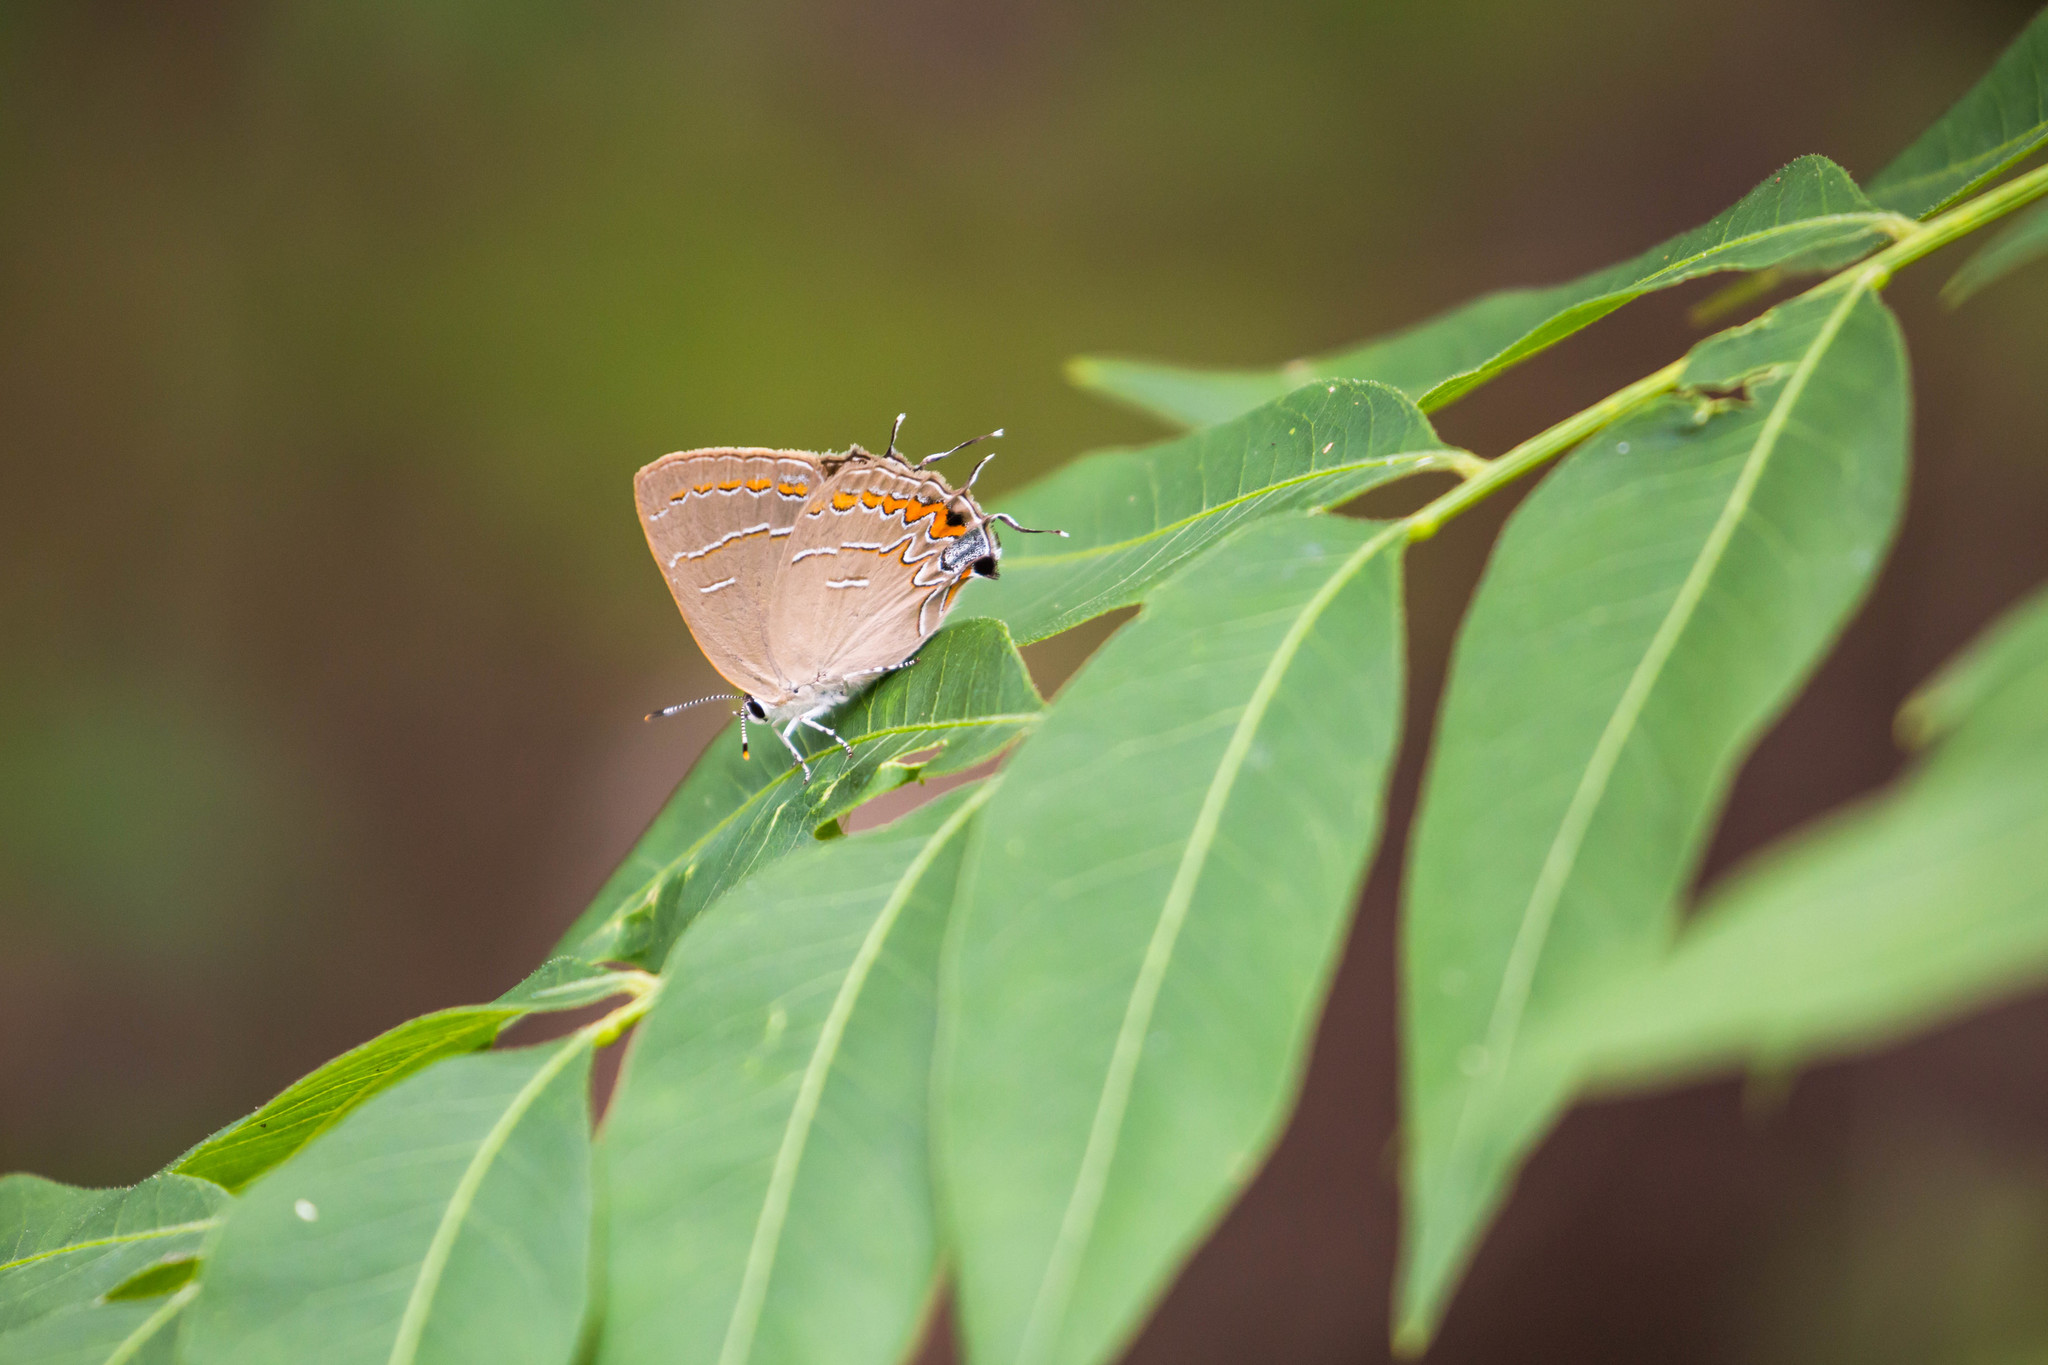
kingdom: Animalia
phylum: Arthropoda
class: Insecta
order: Lepidoptera
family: Lycaenidae
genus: Phaeostrymon
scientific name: Phaeostrymon alcestis
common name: Soapberry hairstreak
